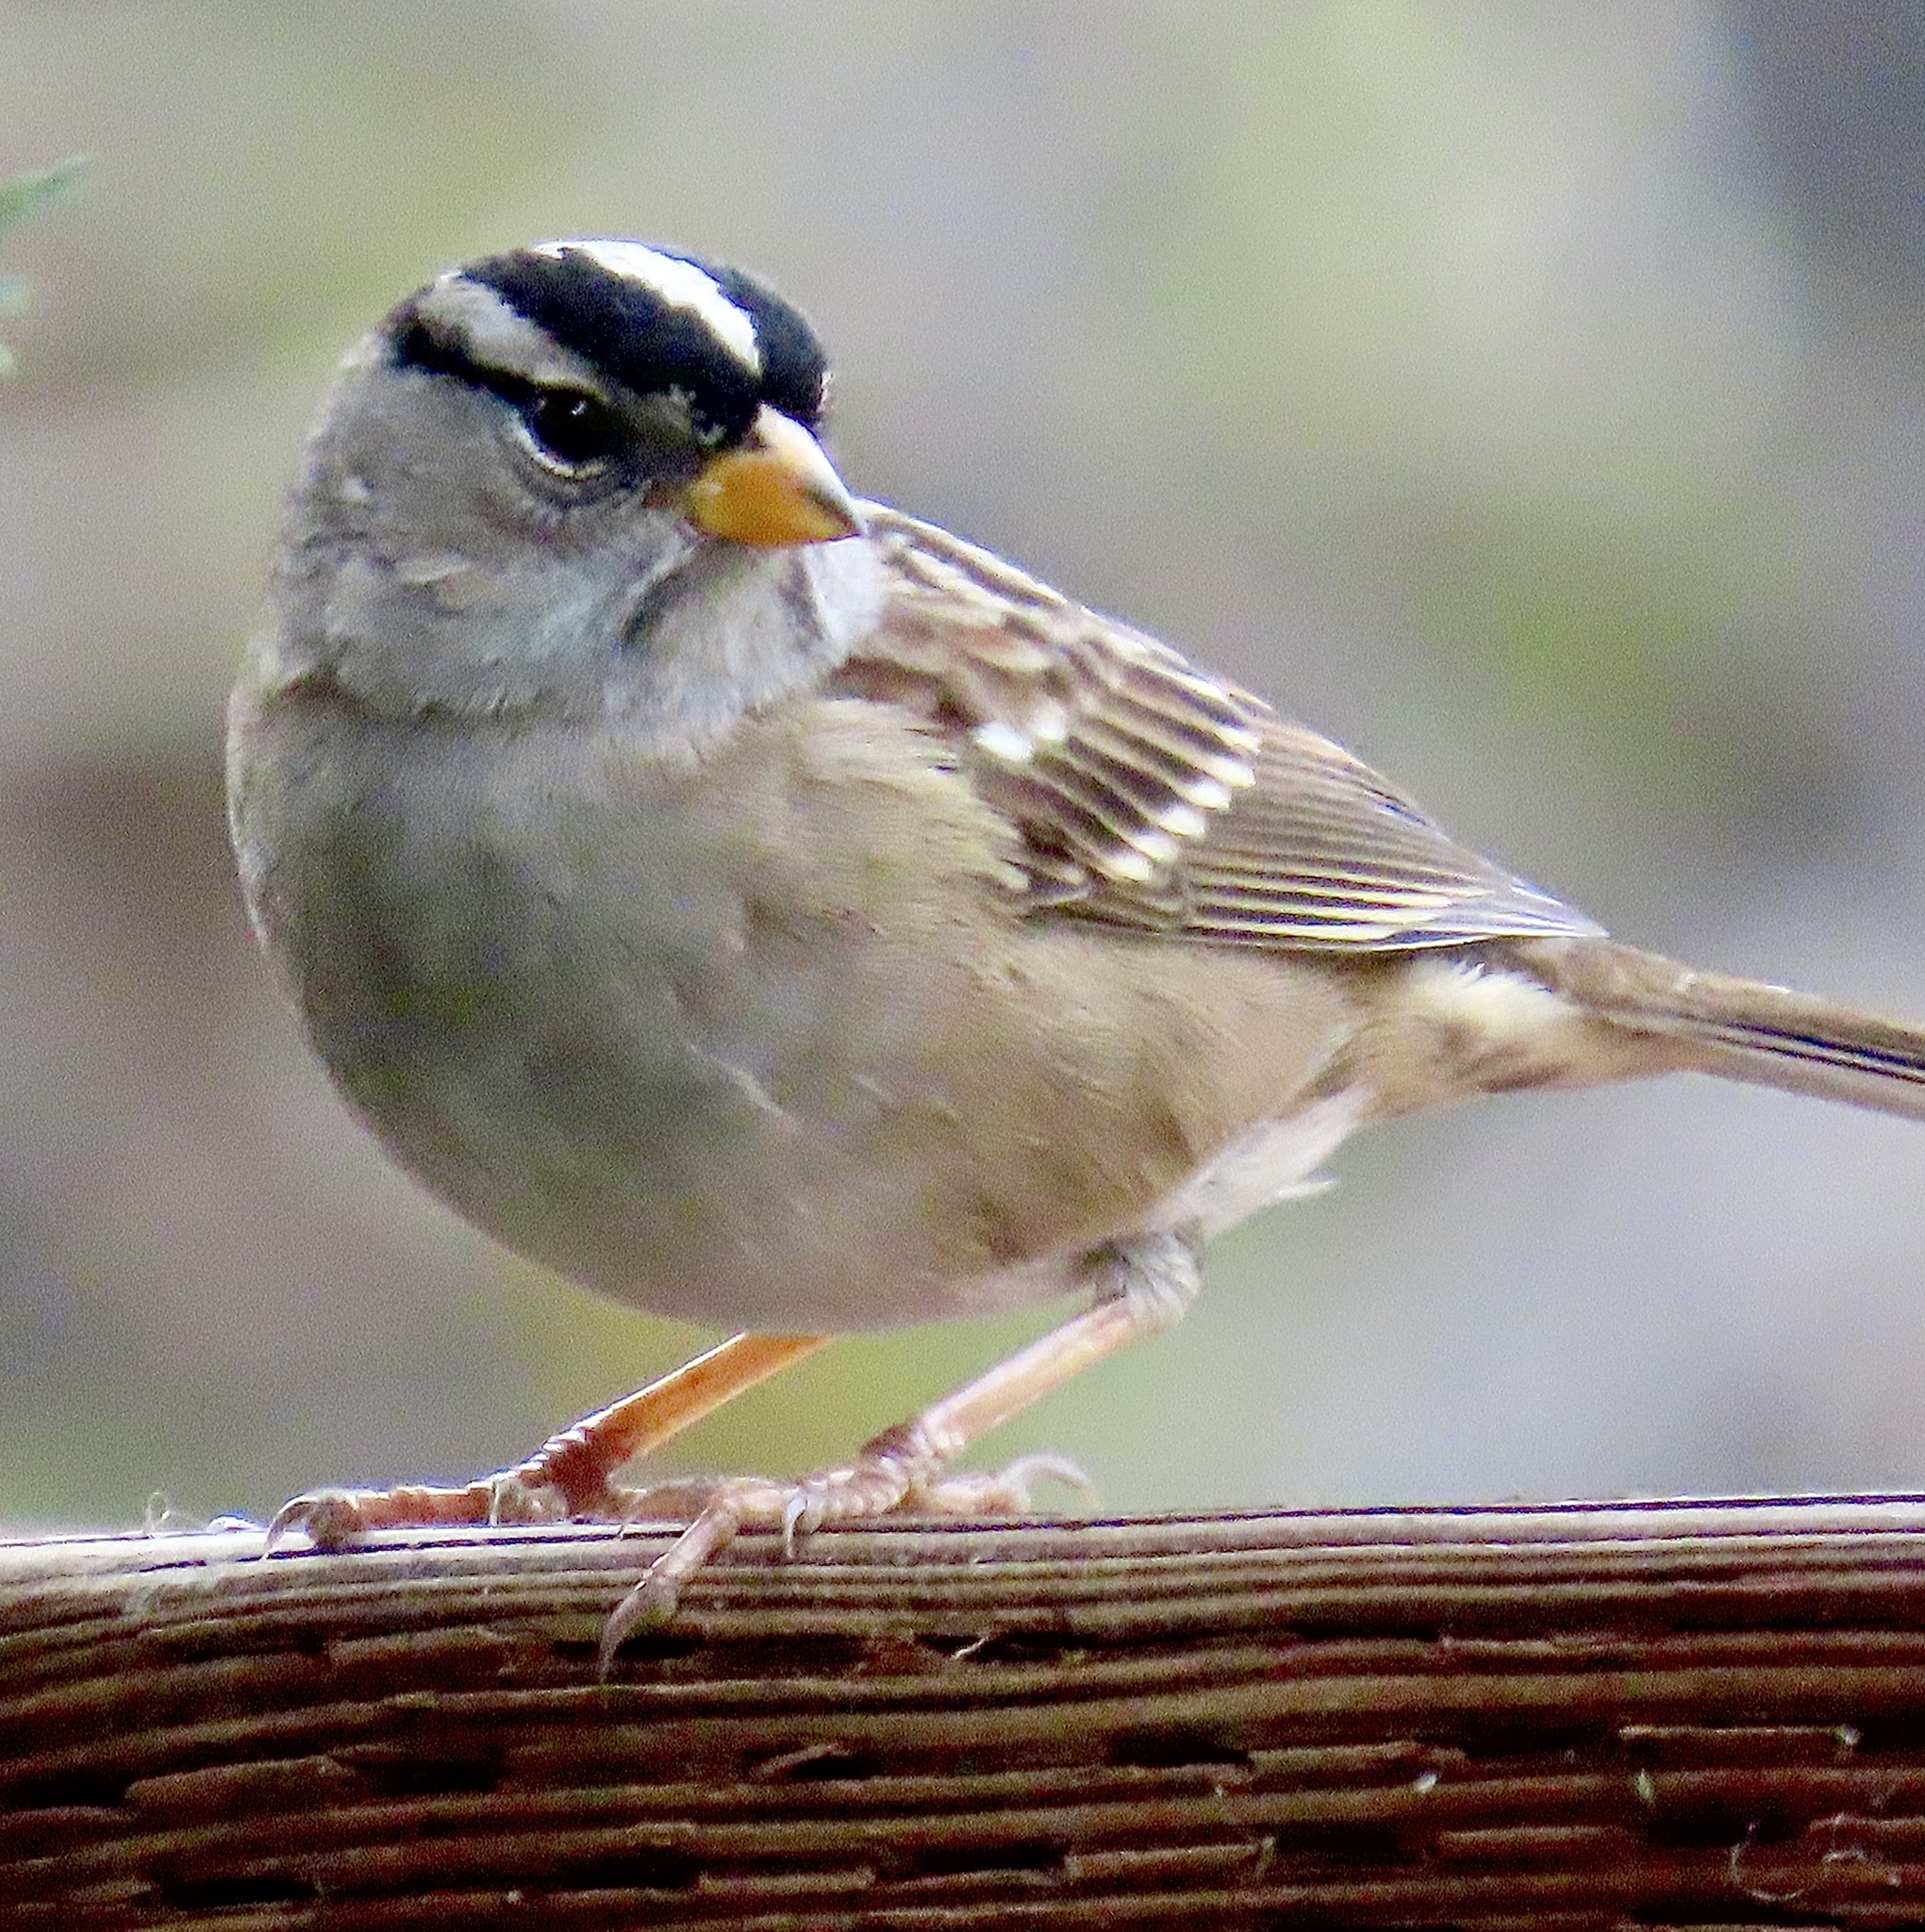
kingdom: Animalia
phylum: Chordata
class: Aves
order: Passeriformes
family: Passerellidae
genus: Zonotrichia
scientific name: Zonotrichia leucophrys
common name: White-crowned sparrow
